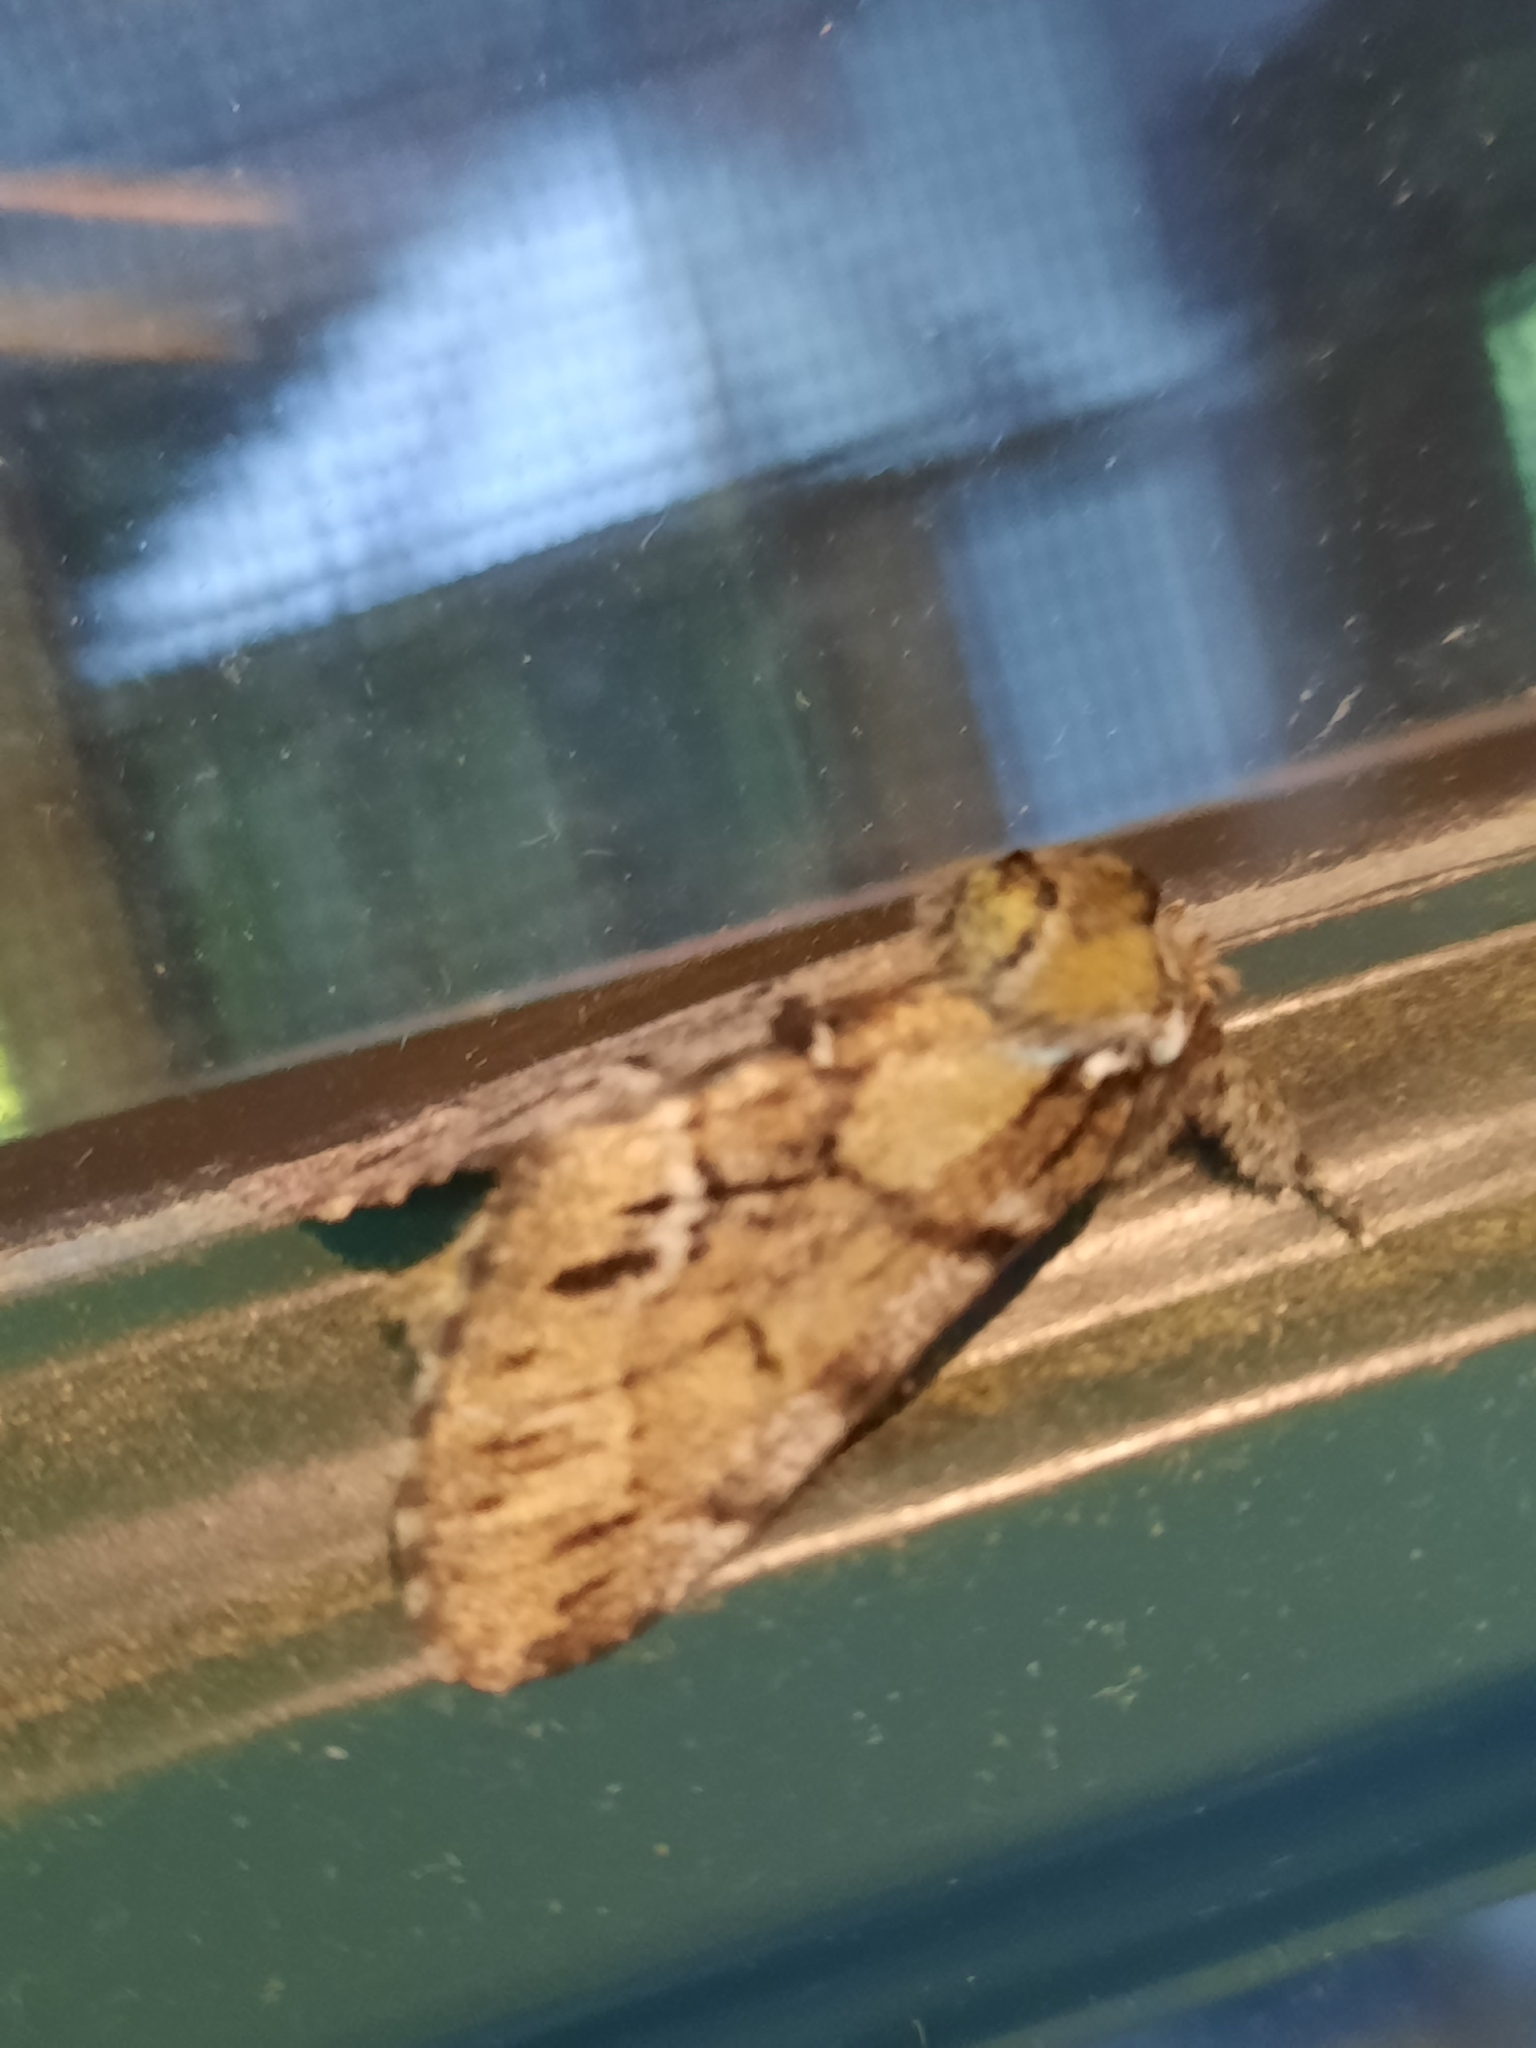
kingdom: Animalia
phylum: Arthropoda
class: Insecta
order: Lepidoptera
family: Notodontidae
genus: Paraeschra
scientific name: Paraeschra georgica
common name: Georgian prominent
